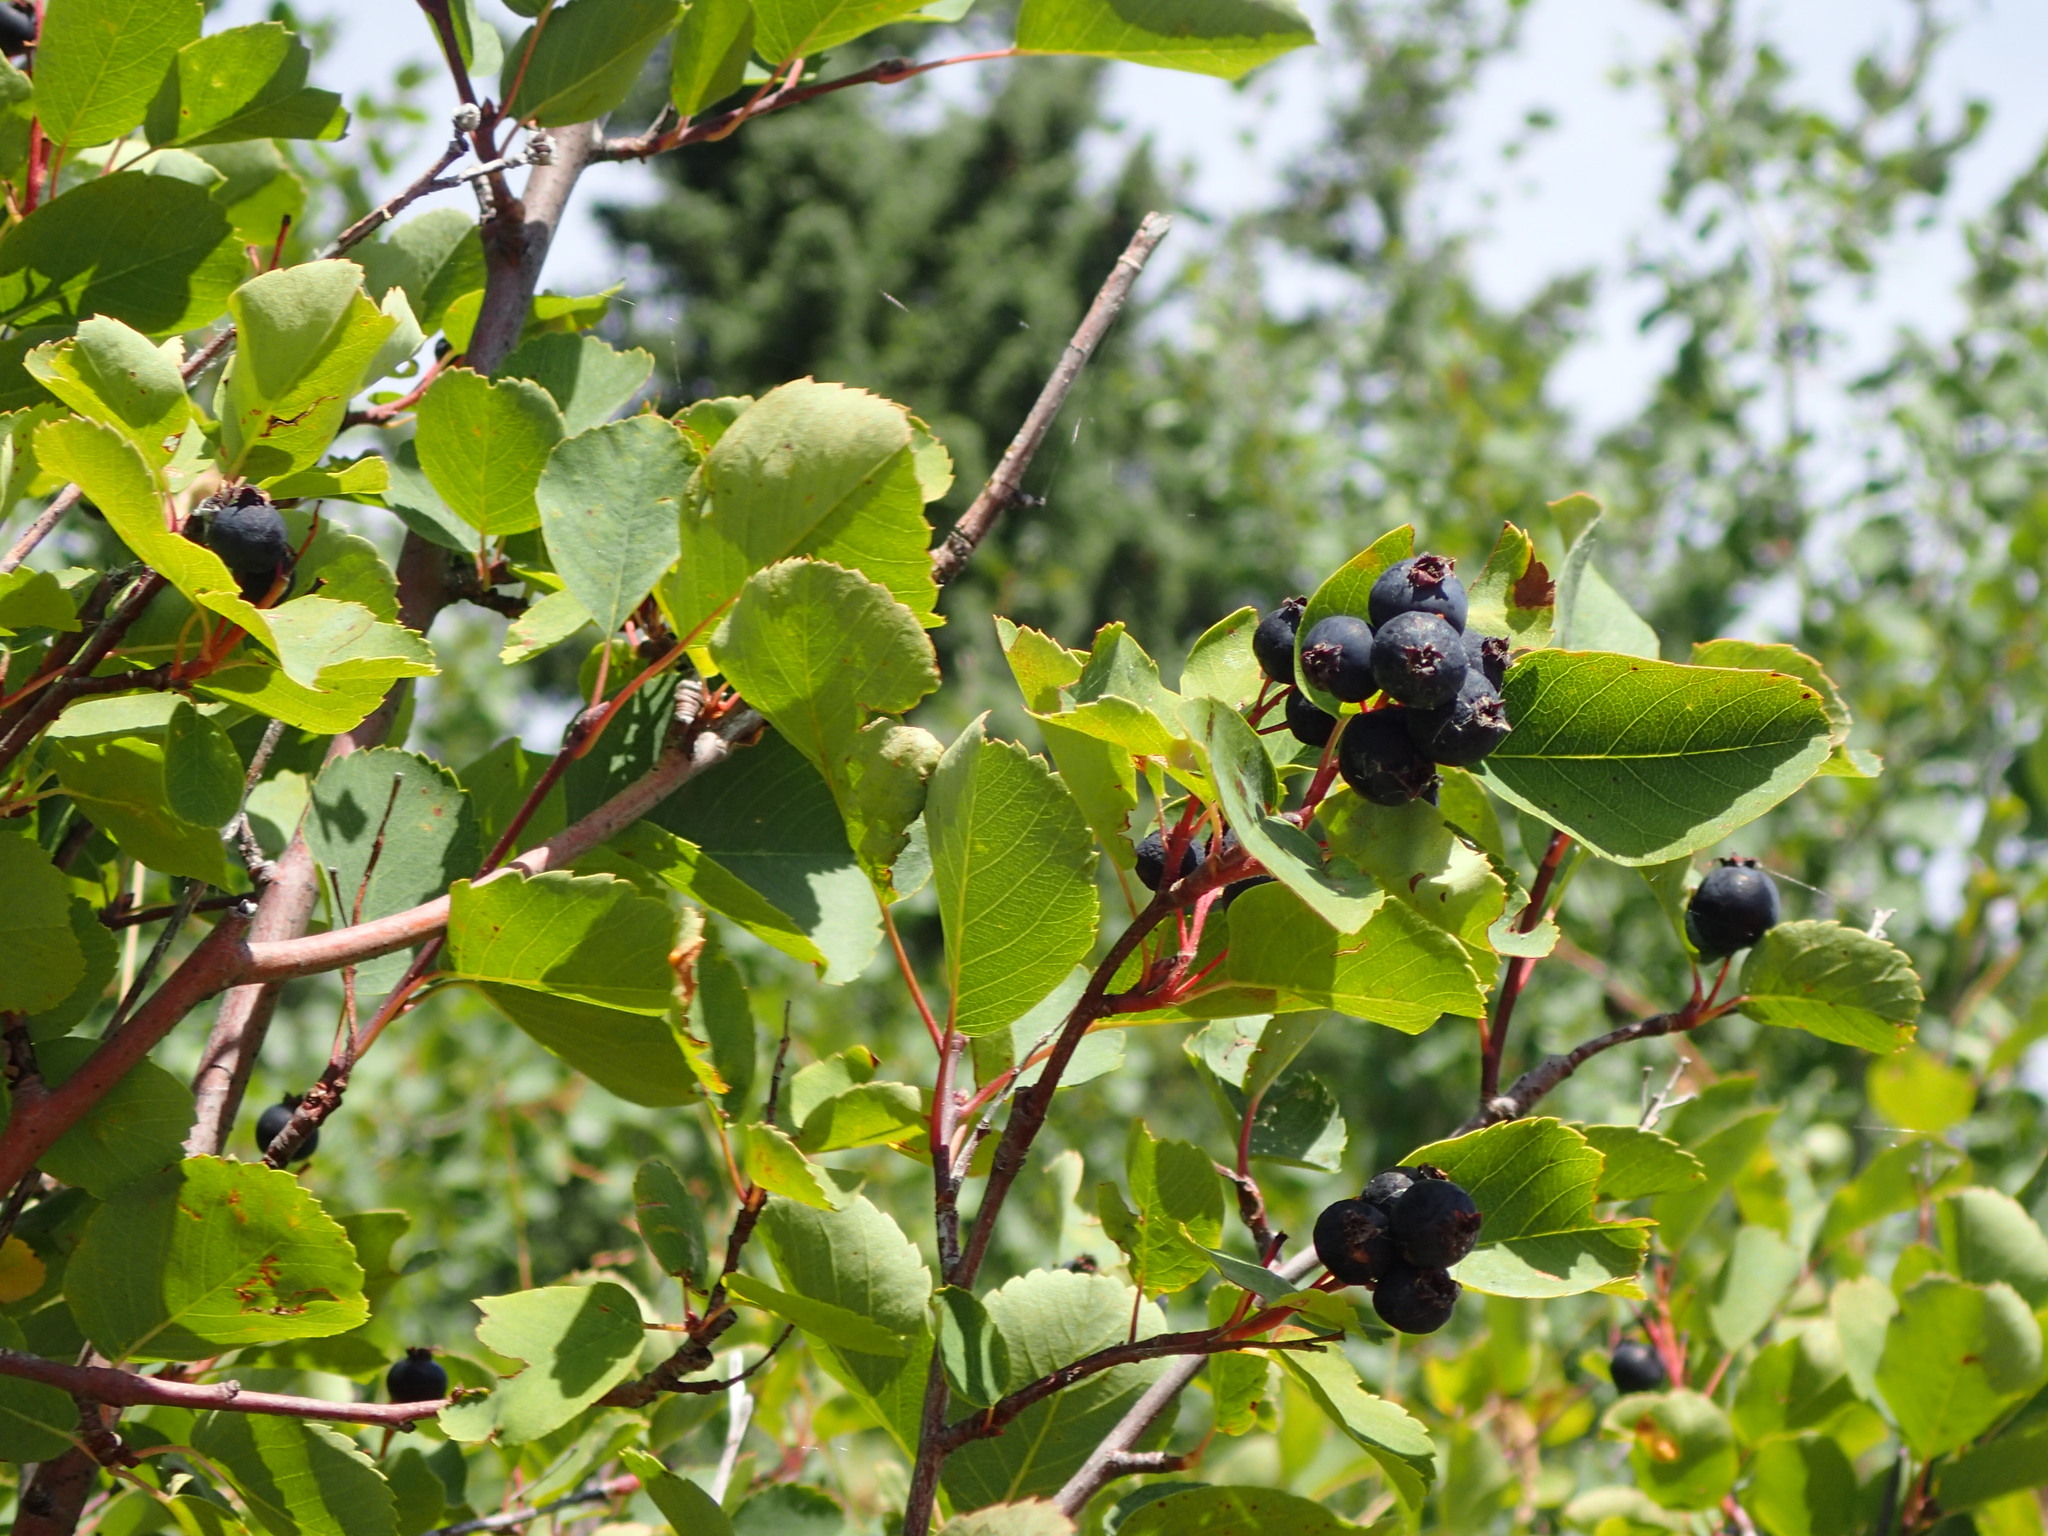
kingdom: Plantae
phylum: Tracheophyta
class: Magnoliopsida
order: Rosales
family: Rosaceae
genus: Amelanchier
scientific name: Amelanchier alnifolia
